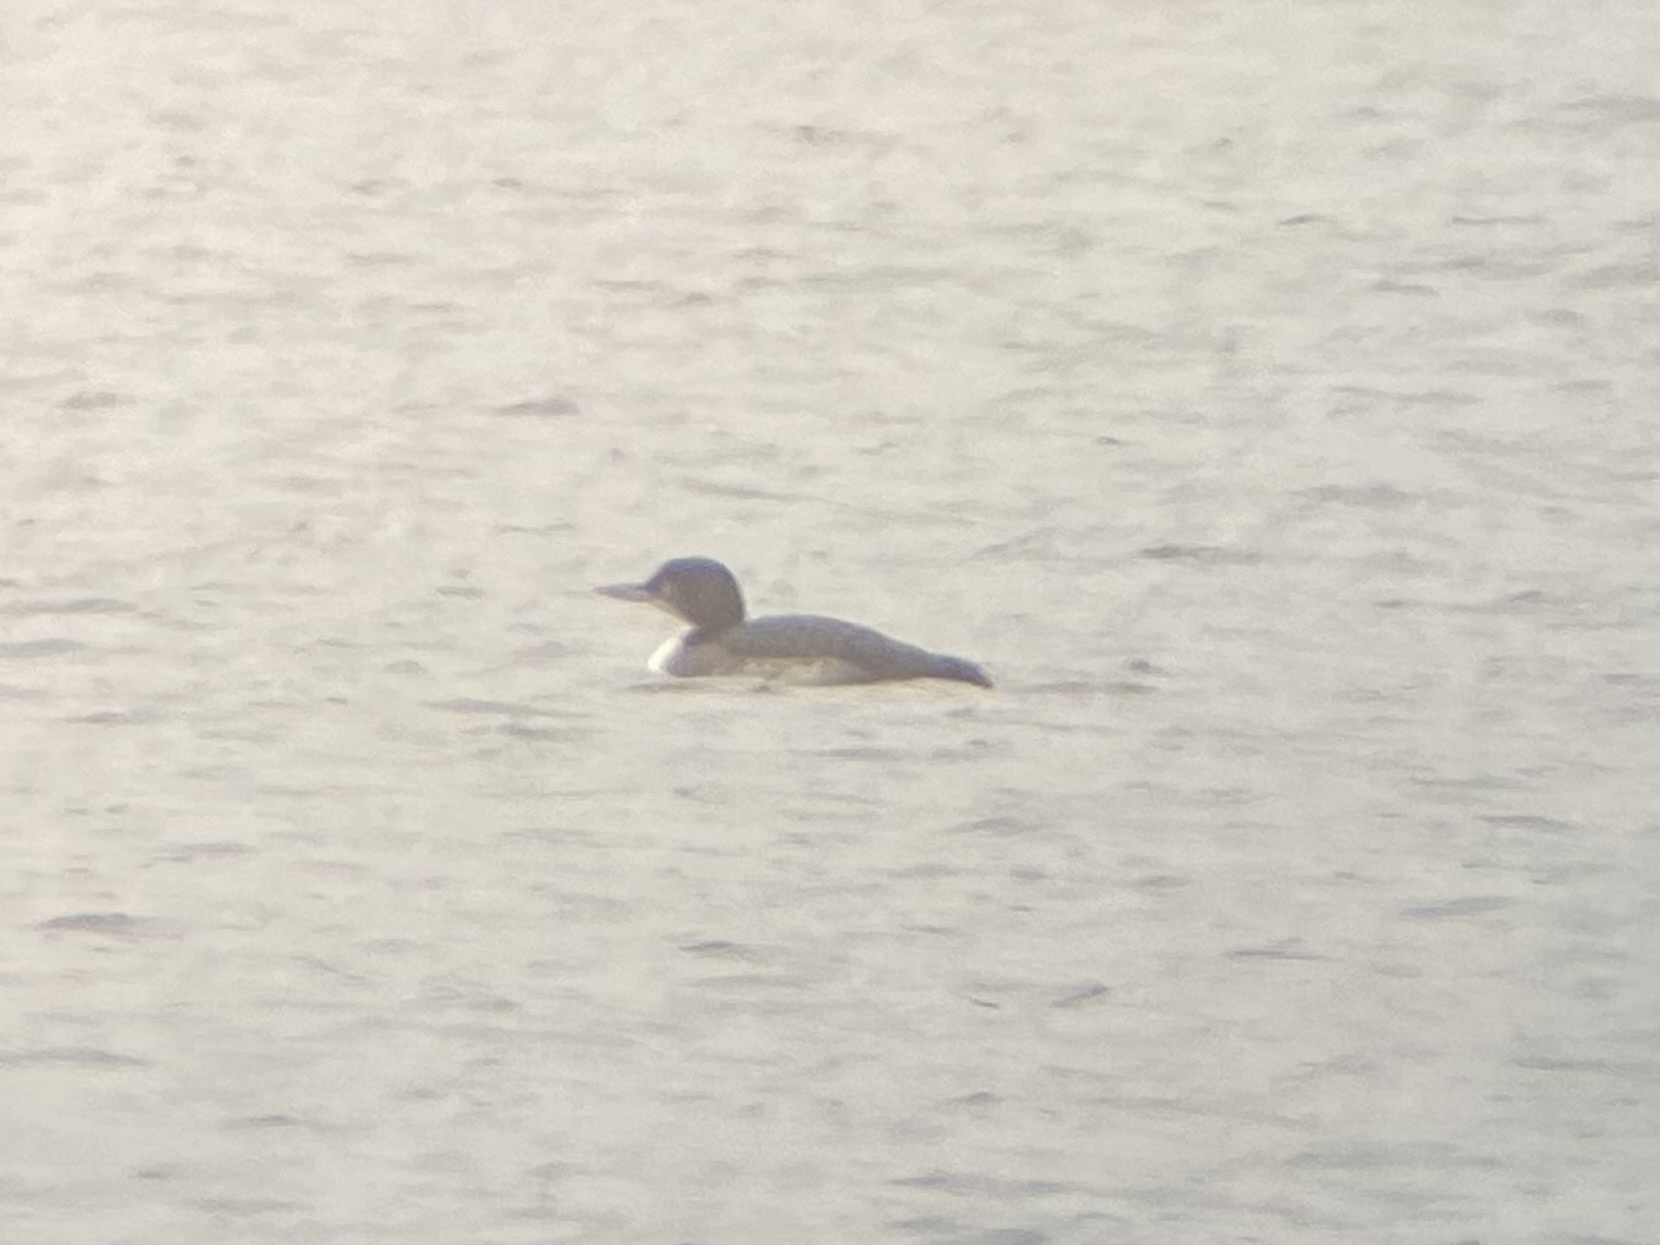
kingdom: Animalia
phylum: Chordata
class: Aves
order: Gaviiformes
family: Gaviidae
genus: Gavia
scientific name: Gavia immer
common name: Common loon
